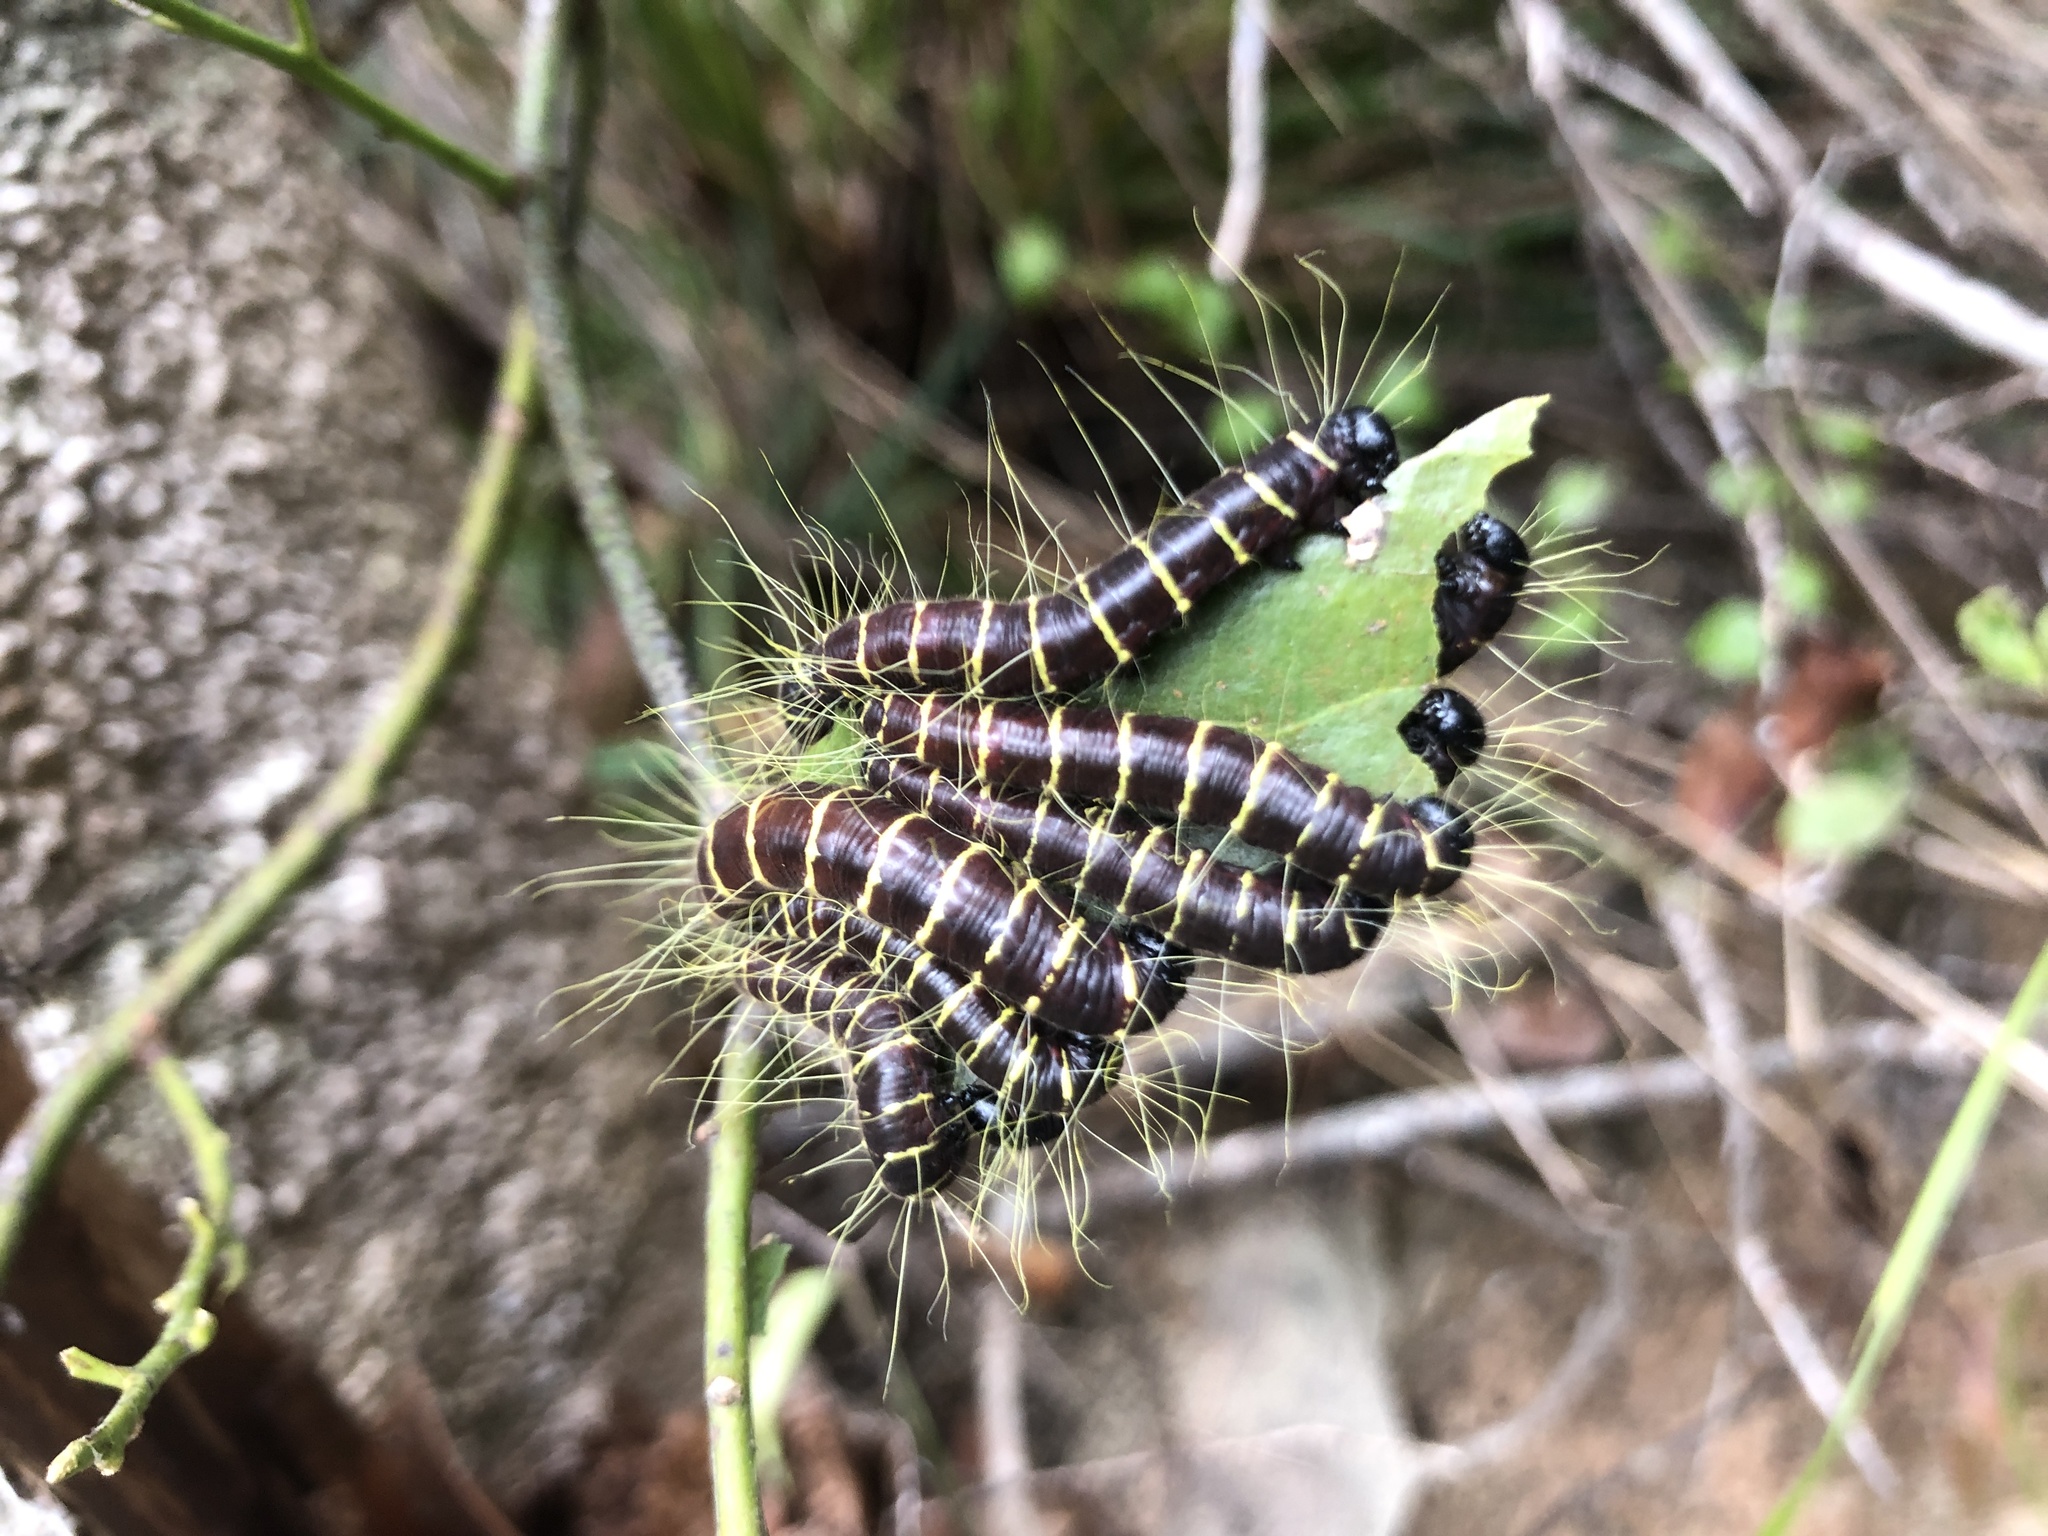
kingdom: Animalia
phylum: Arthropoda
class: Insecta
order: Lepidoptera
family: Pieridae
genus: Delias
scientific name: Delias pasithoe
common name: Red-base jezebel
